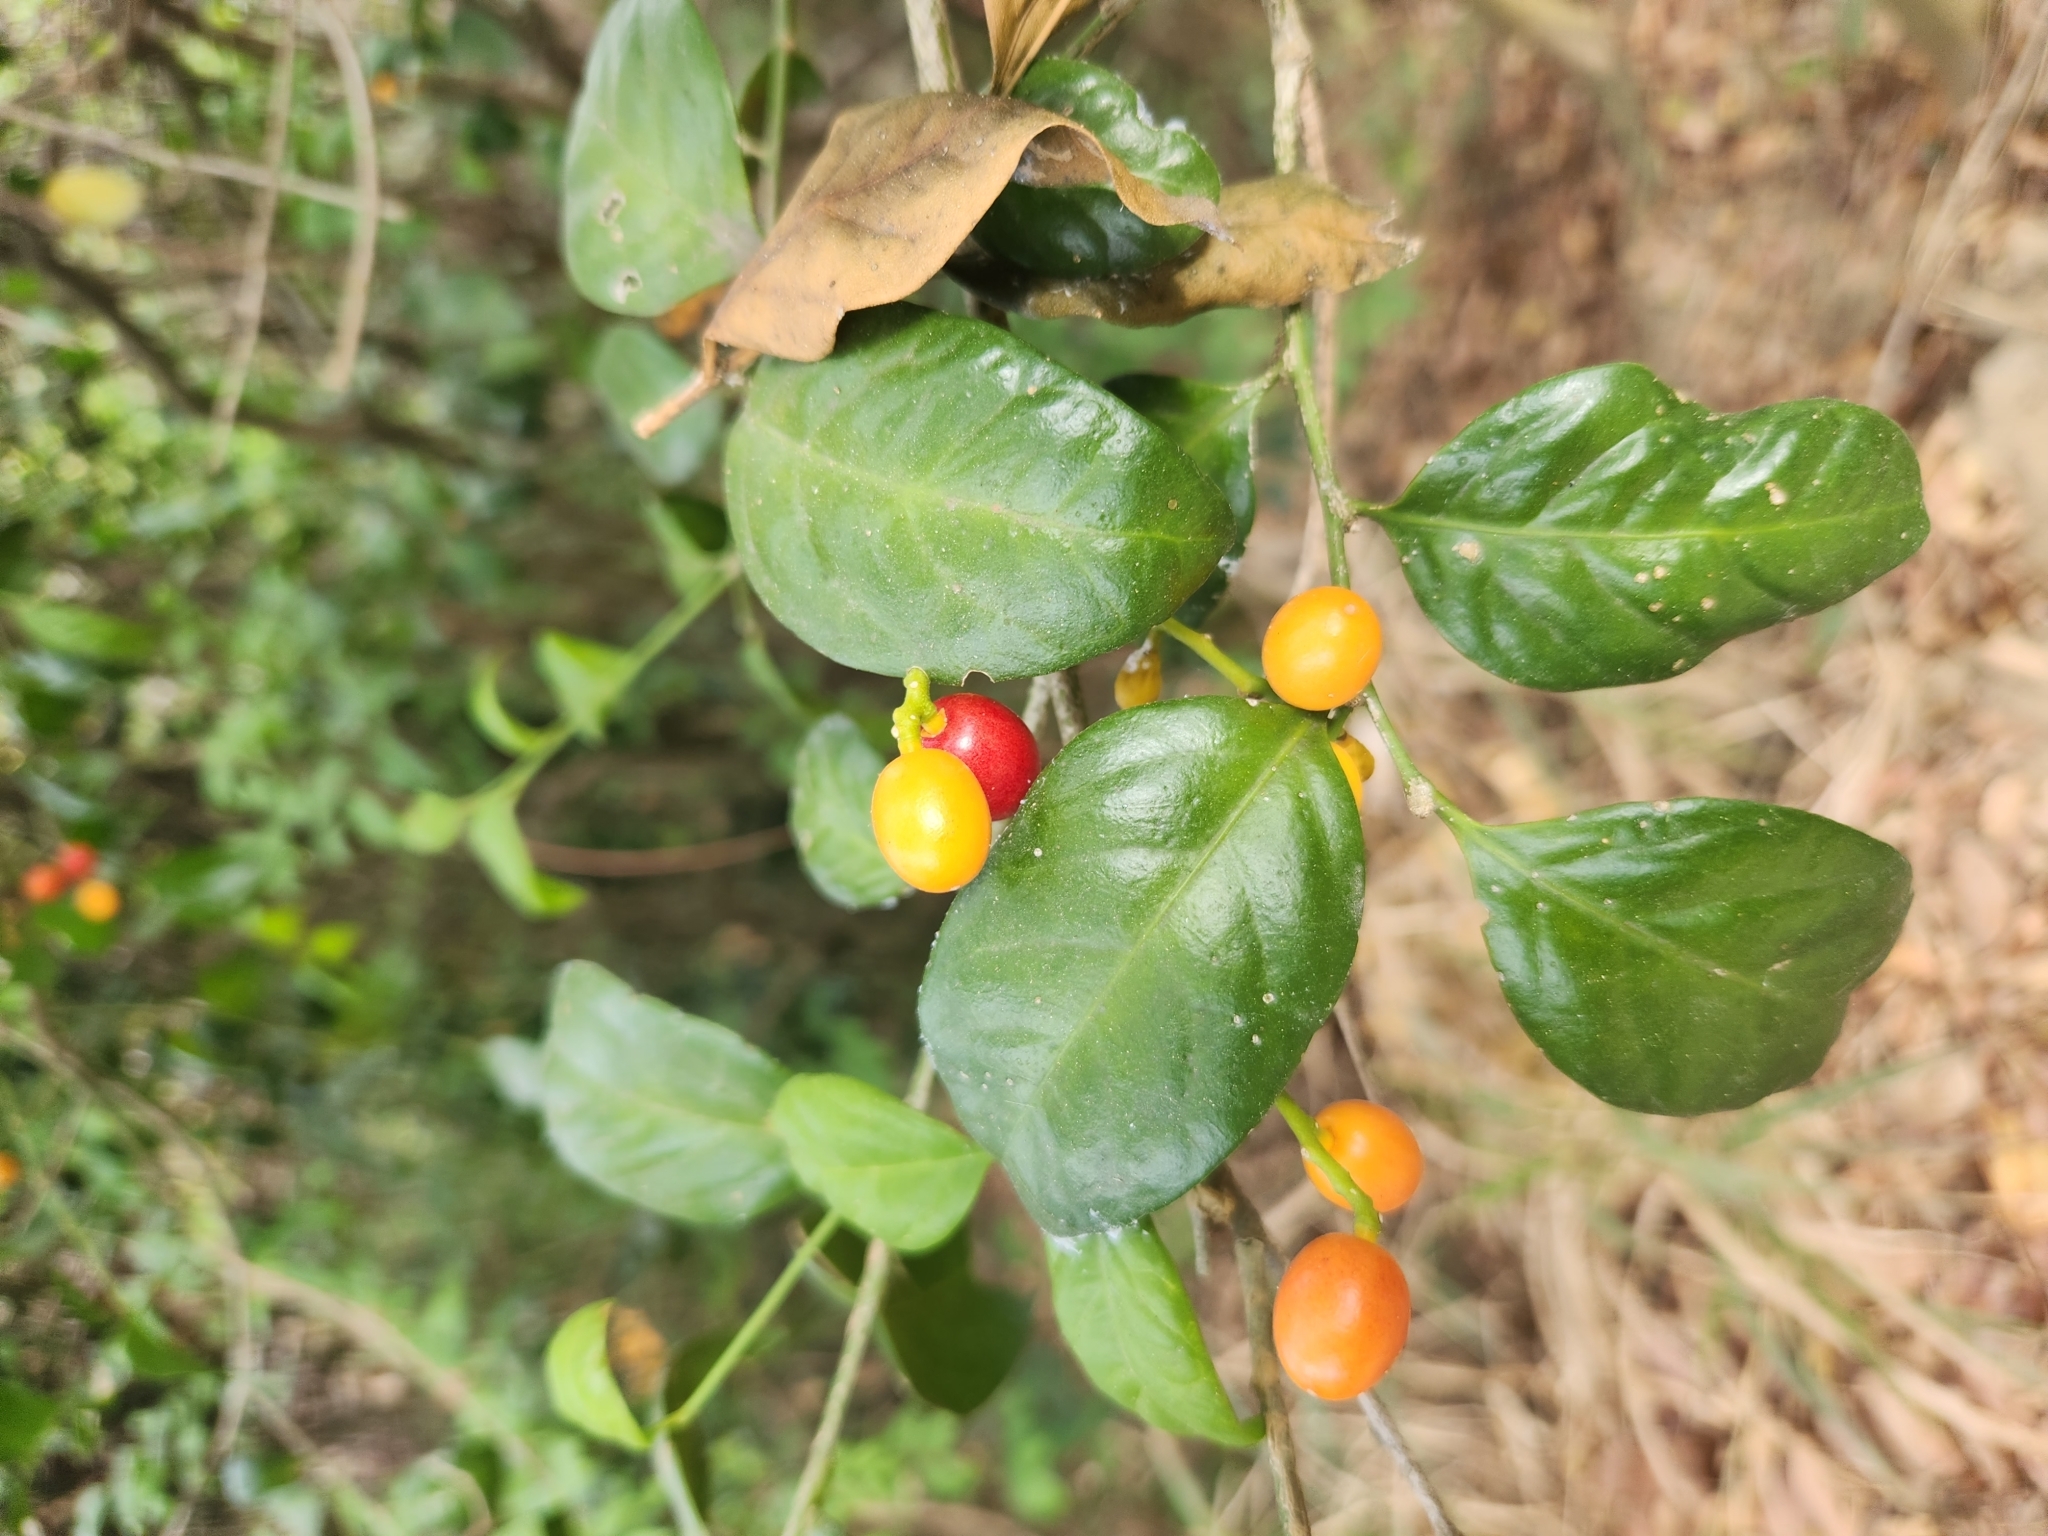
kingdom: Plantae
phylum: Tracheophyta
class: Magnoliopsida
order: Santalales
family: Opiliaceae
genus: Champereia
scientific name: Champereia manillana
